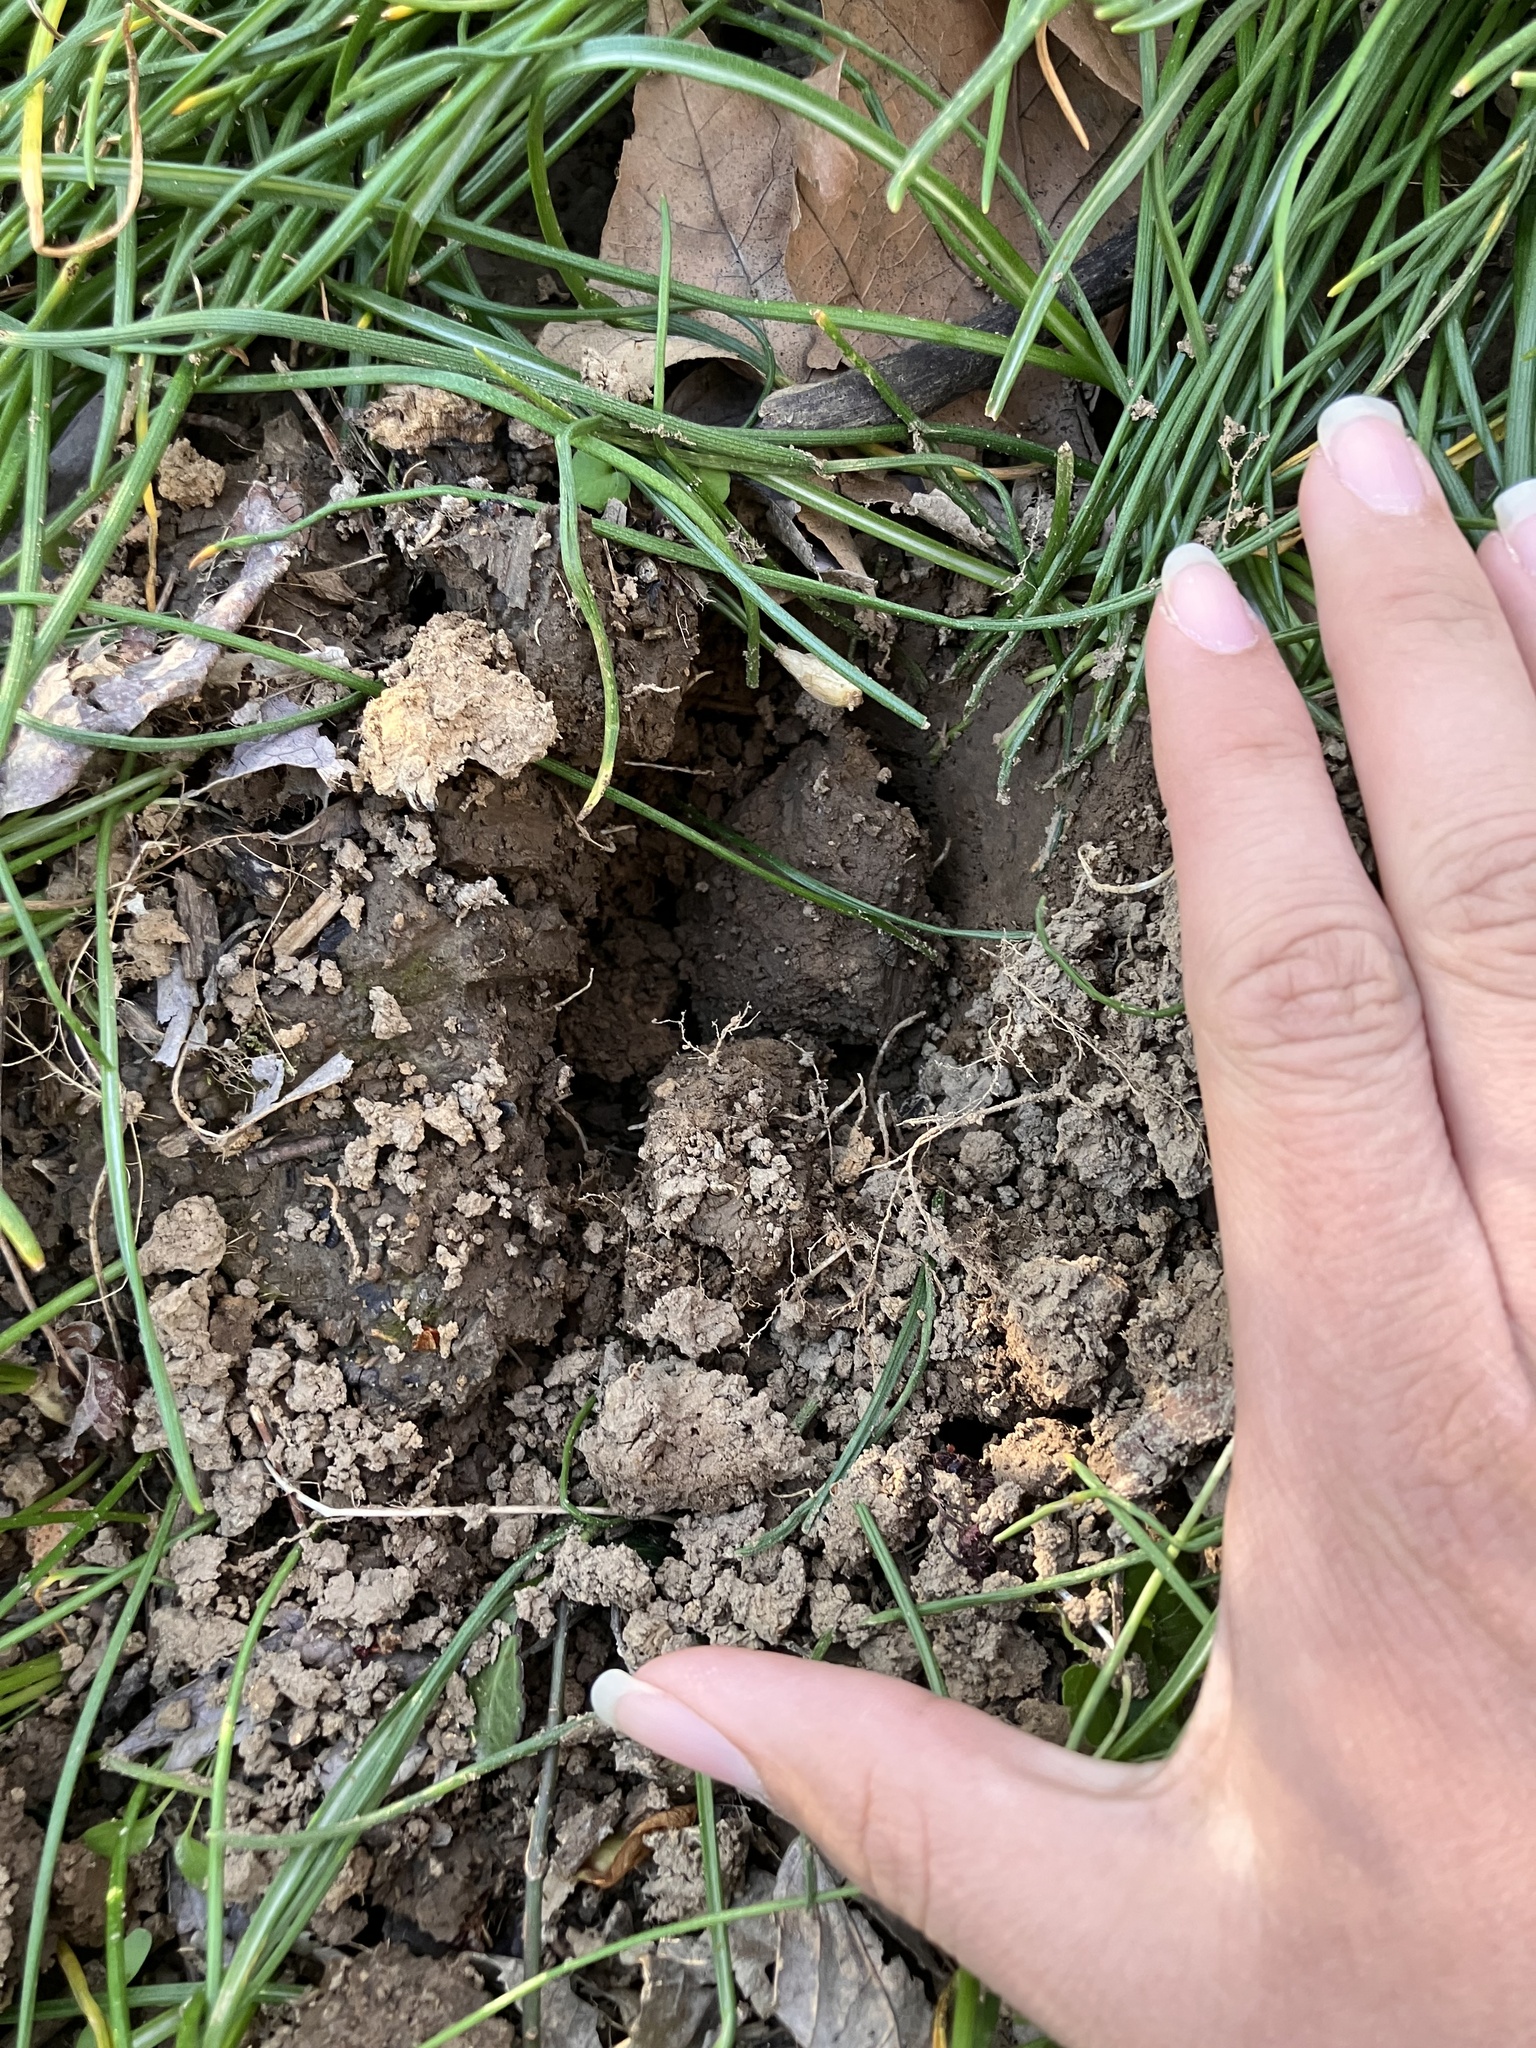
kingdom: Animalia
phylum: Chordata
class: Mammalia
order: Artiodactyla
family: Cervidae
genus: Odocoileus
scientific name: Odocoileus virginianus
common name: White-tailed deer
